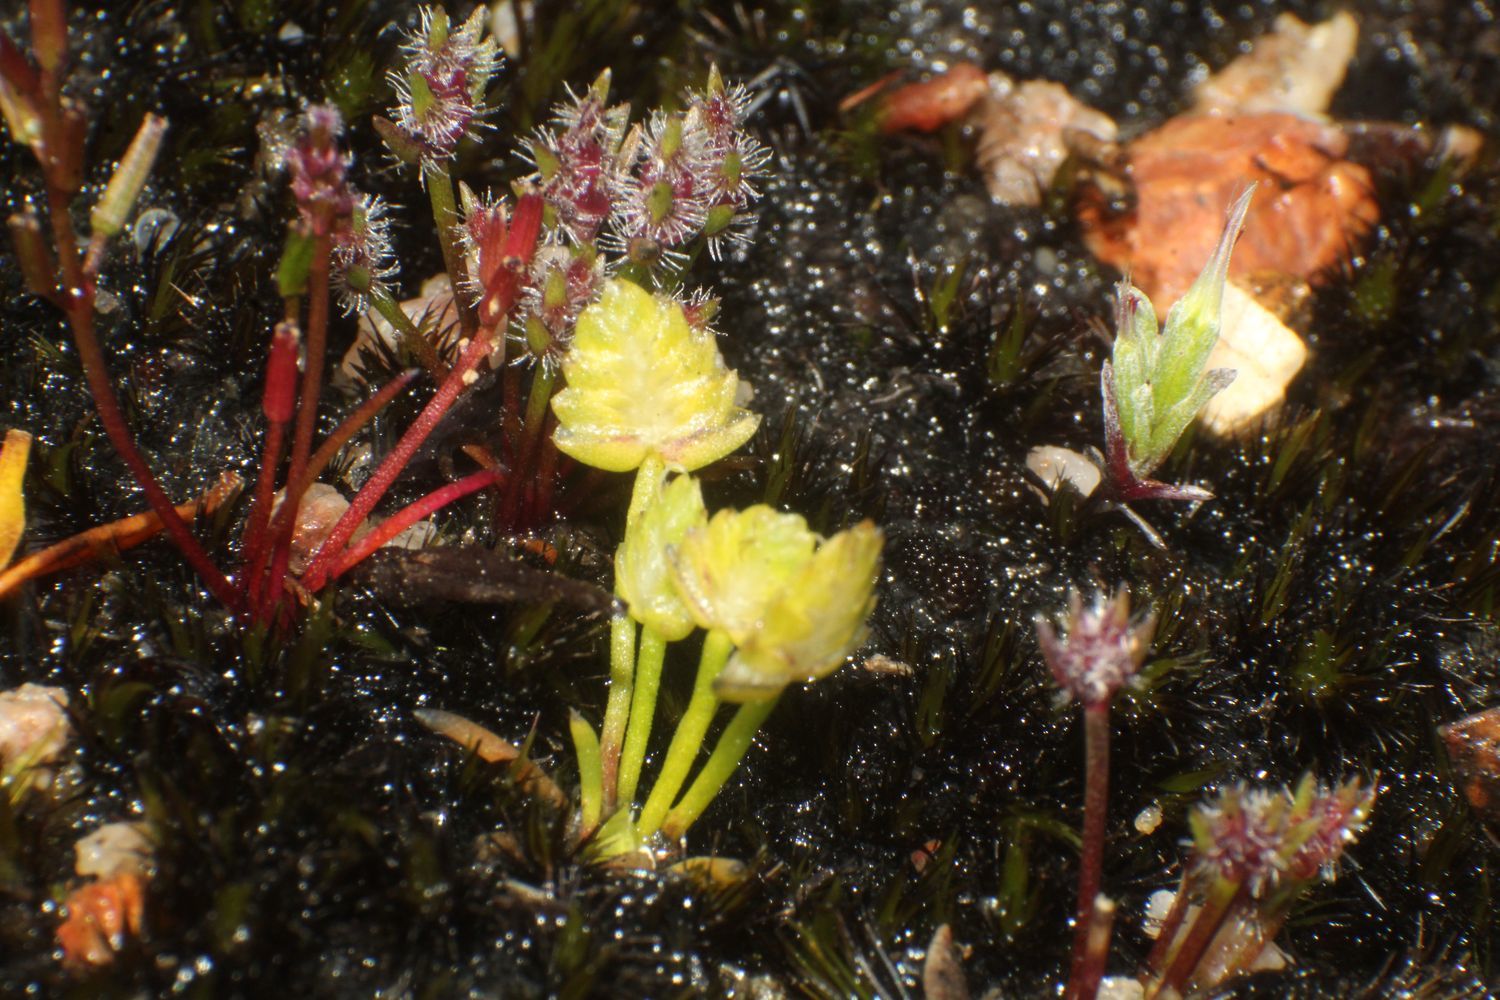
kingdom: Plantae
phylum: Tracheophyta
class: Liliopsida
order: Poales
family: Restionaceae
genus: Aphelia
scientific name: Aphelia brizula
